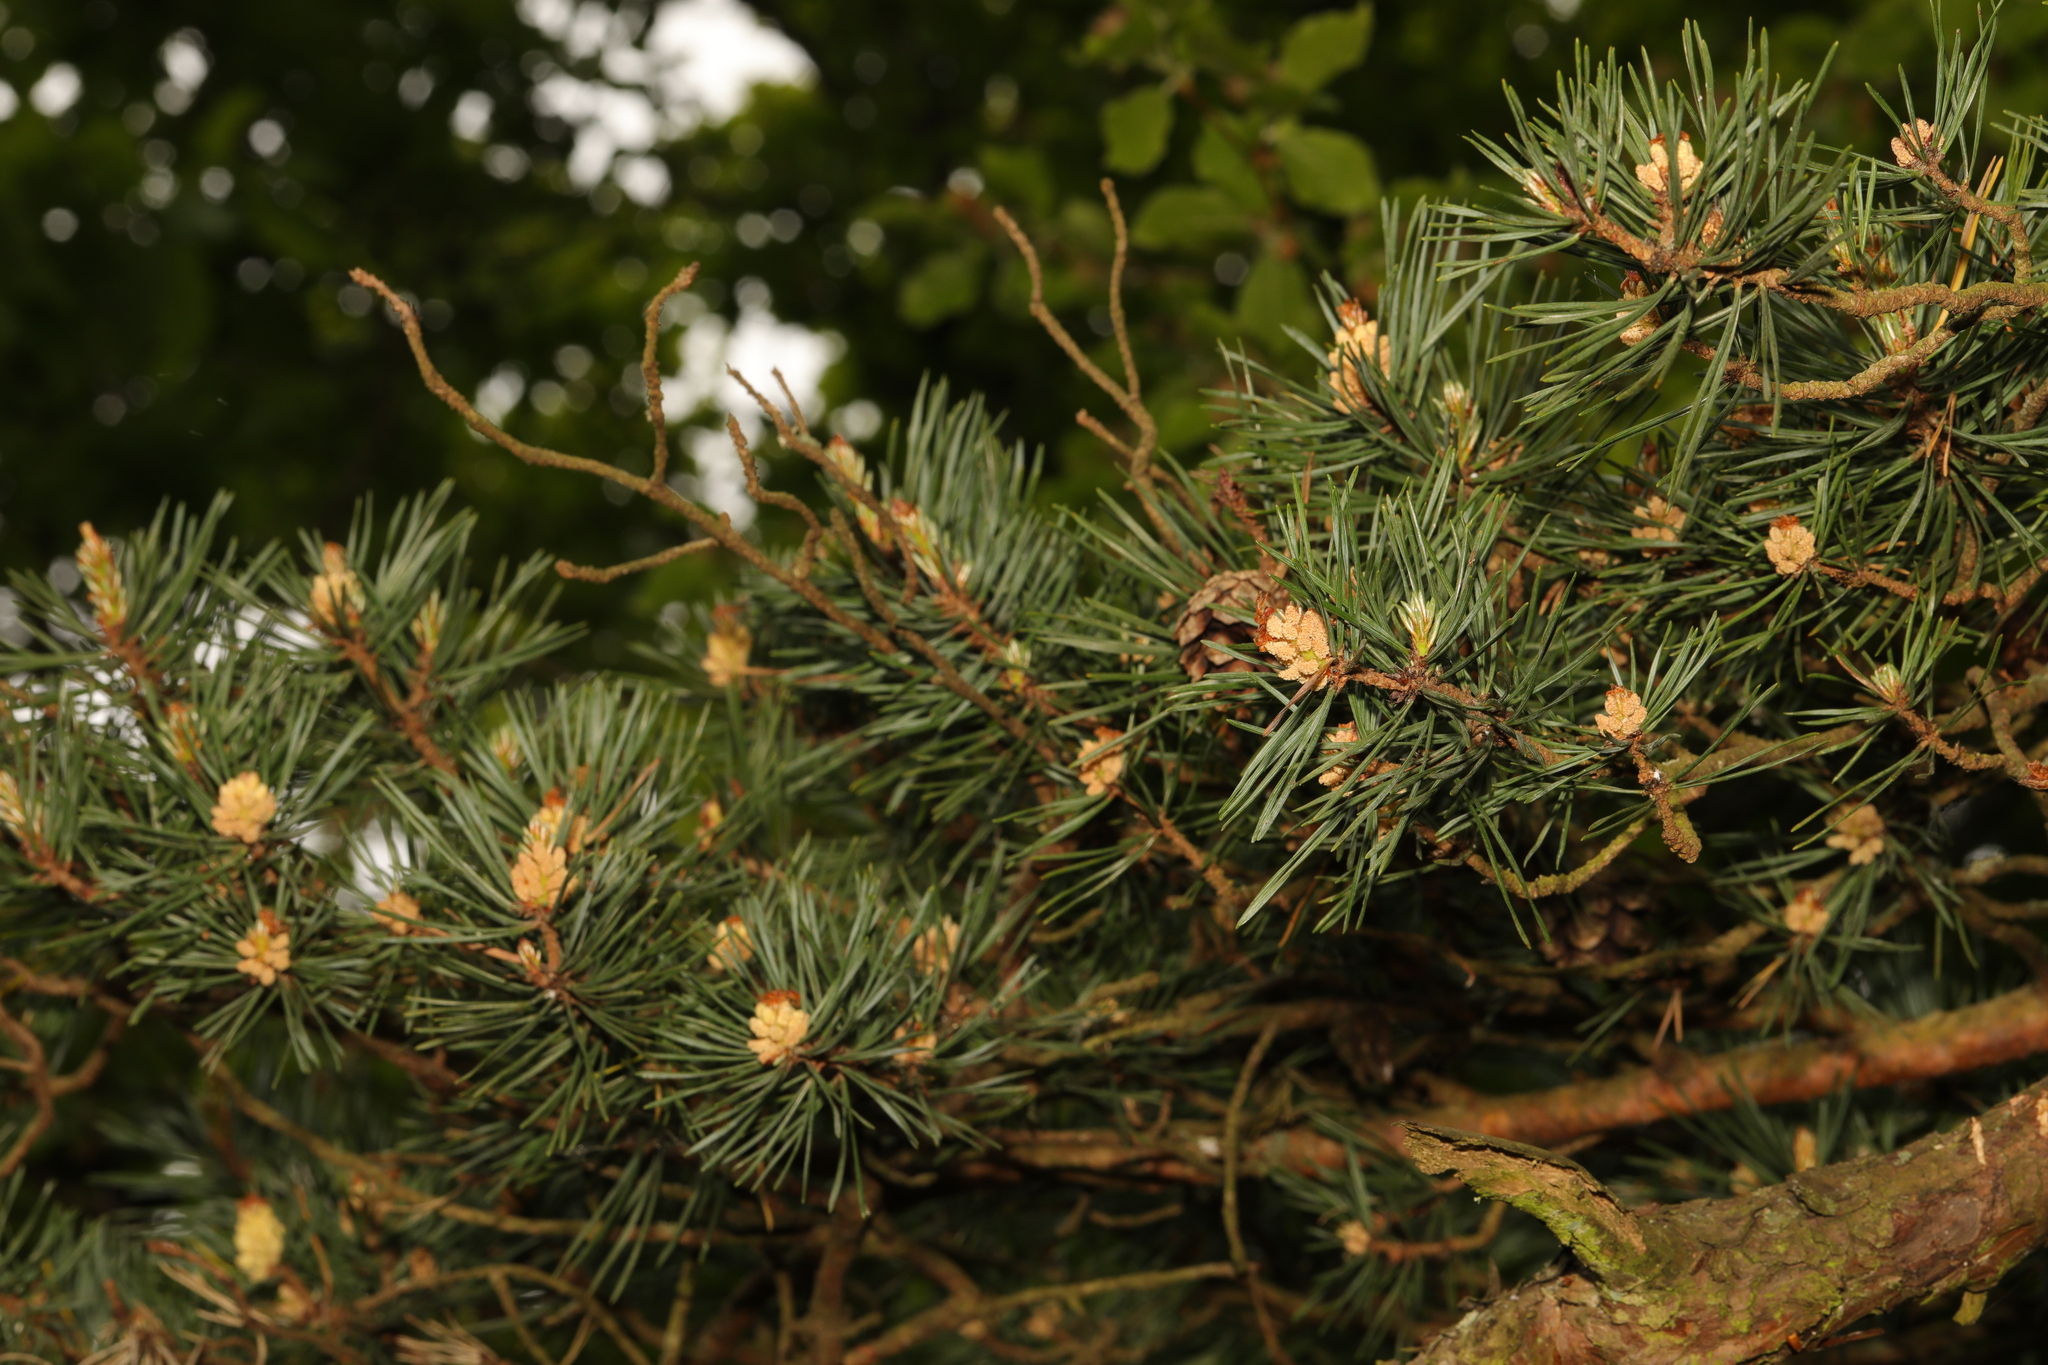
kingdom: Plantae
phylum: Tracheophyta
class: Pinopsida
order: Pinales
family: Pinaceae
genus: Pinus
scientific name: Pinus sylvestris
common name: Scots pine
